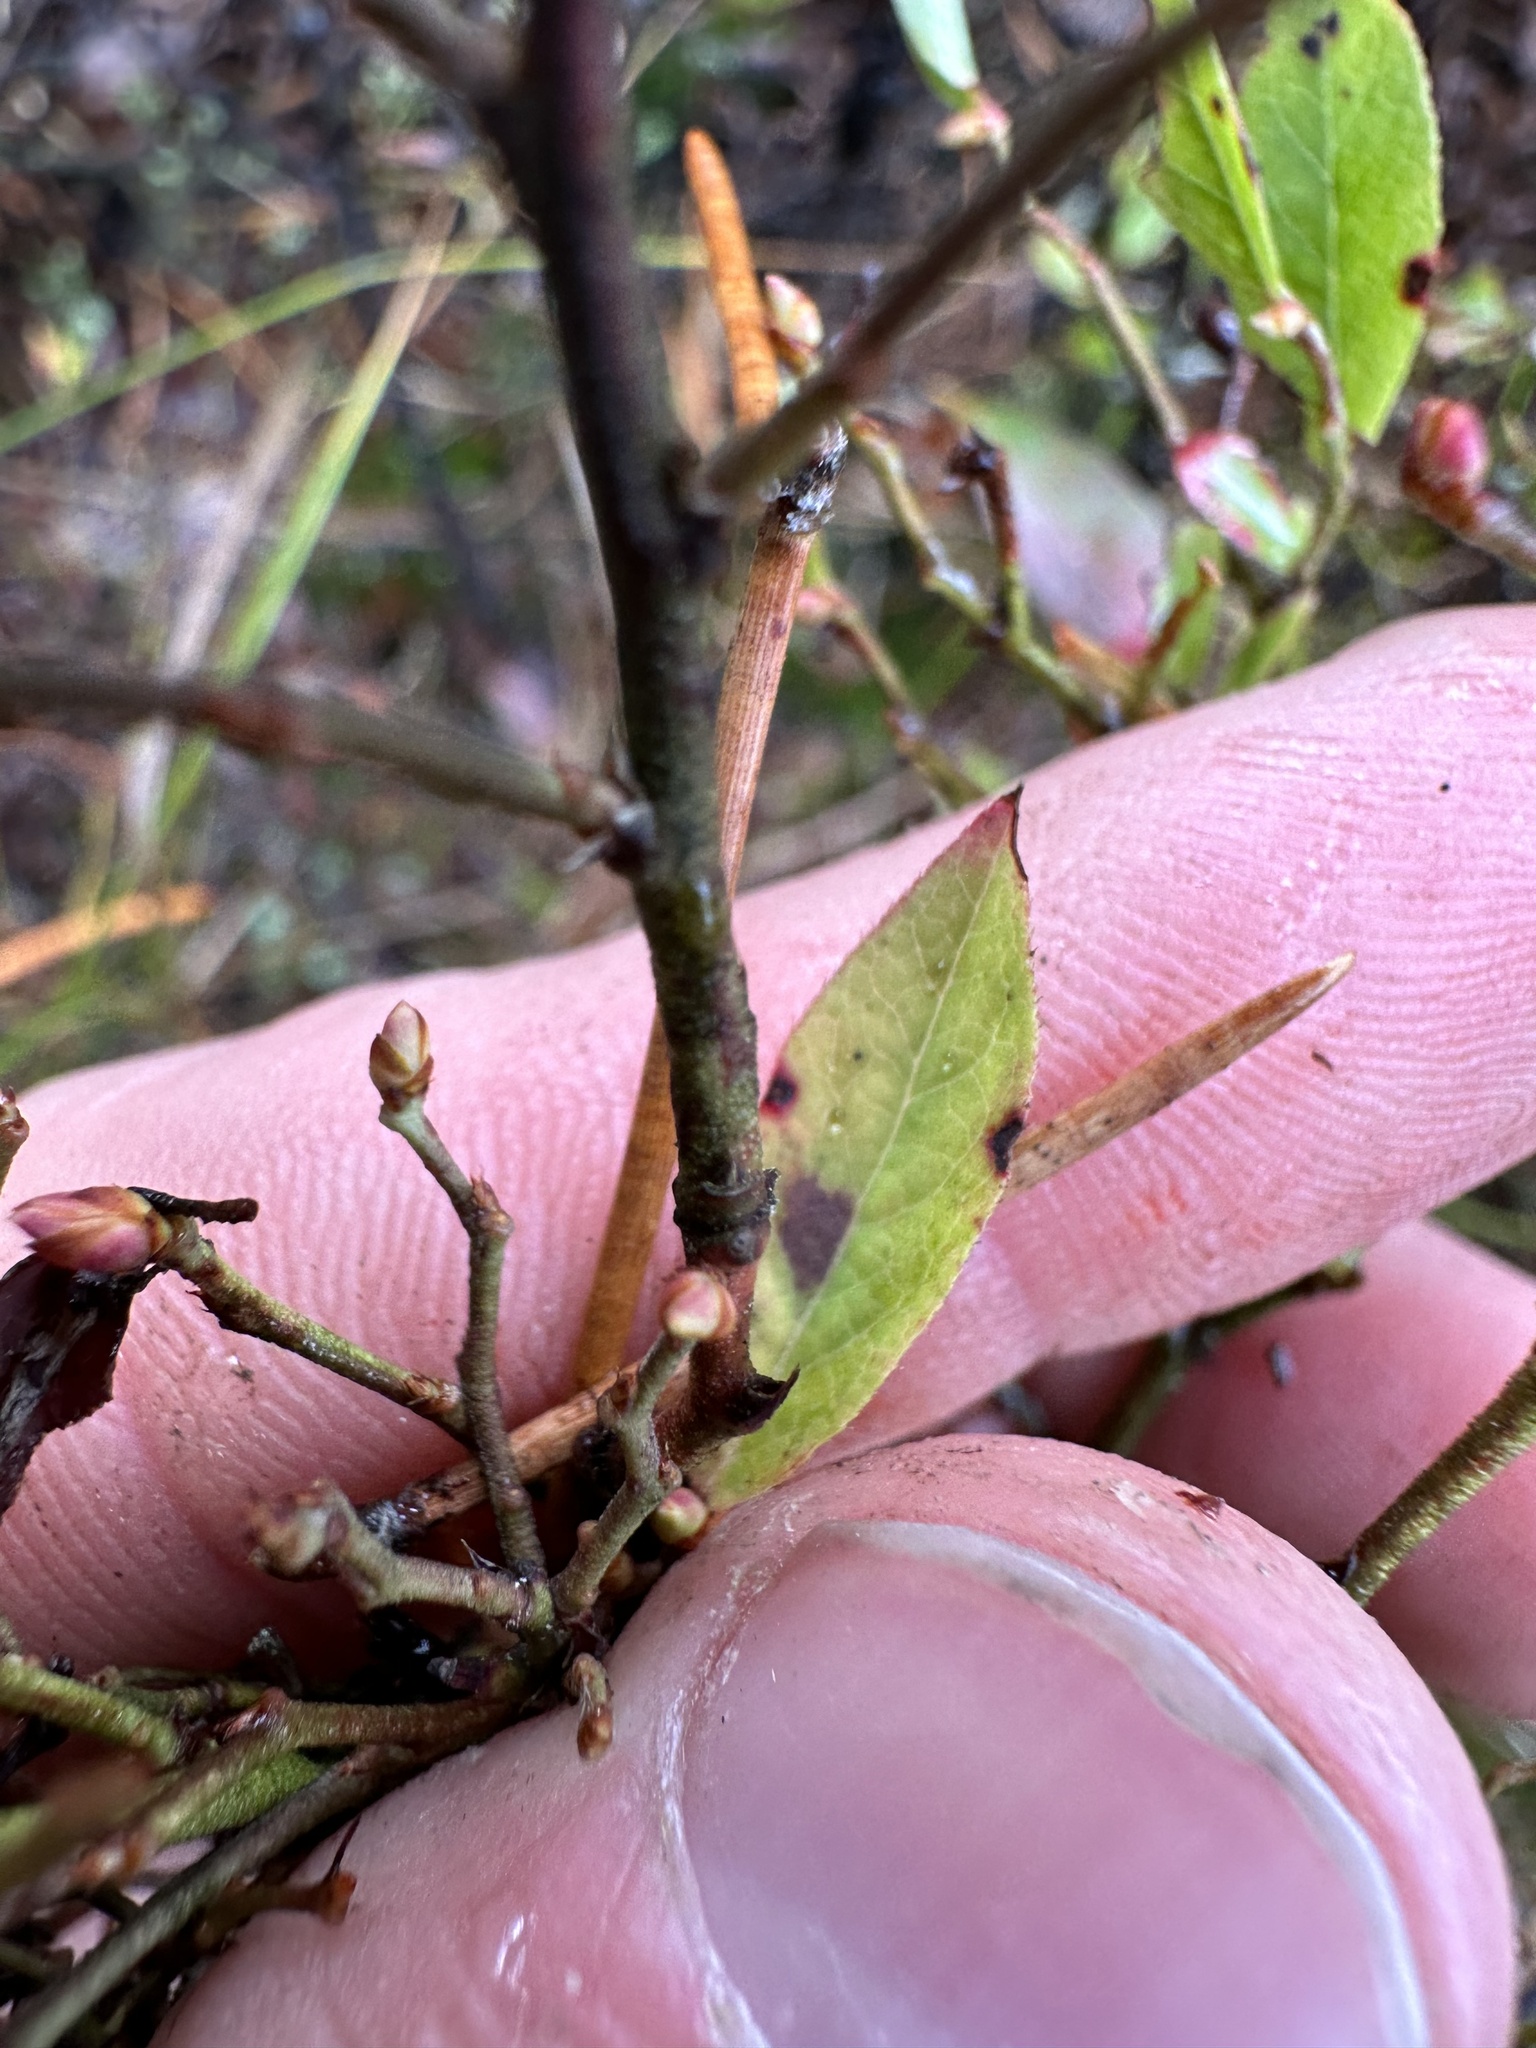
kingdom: Plantae
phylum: Tracheophyta
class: Magnoliopsida
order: Ericales
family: Ericaceae
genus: Vaccinium
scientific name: Vaccinium angustifolium
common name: Early lowbush blueberry
